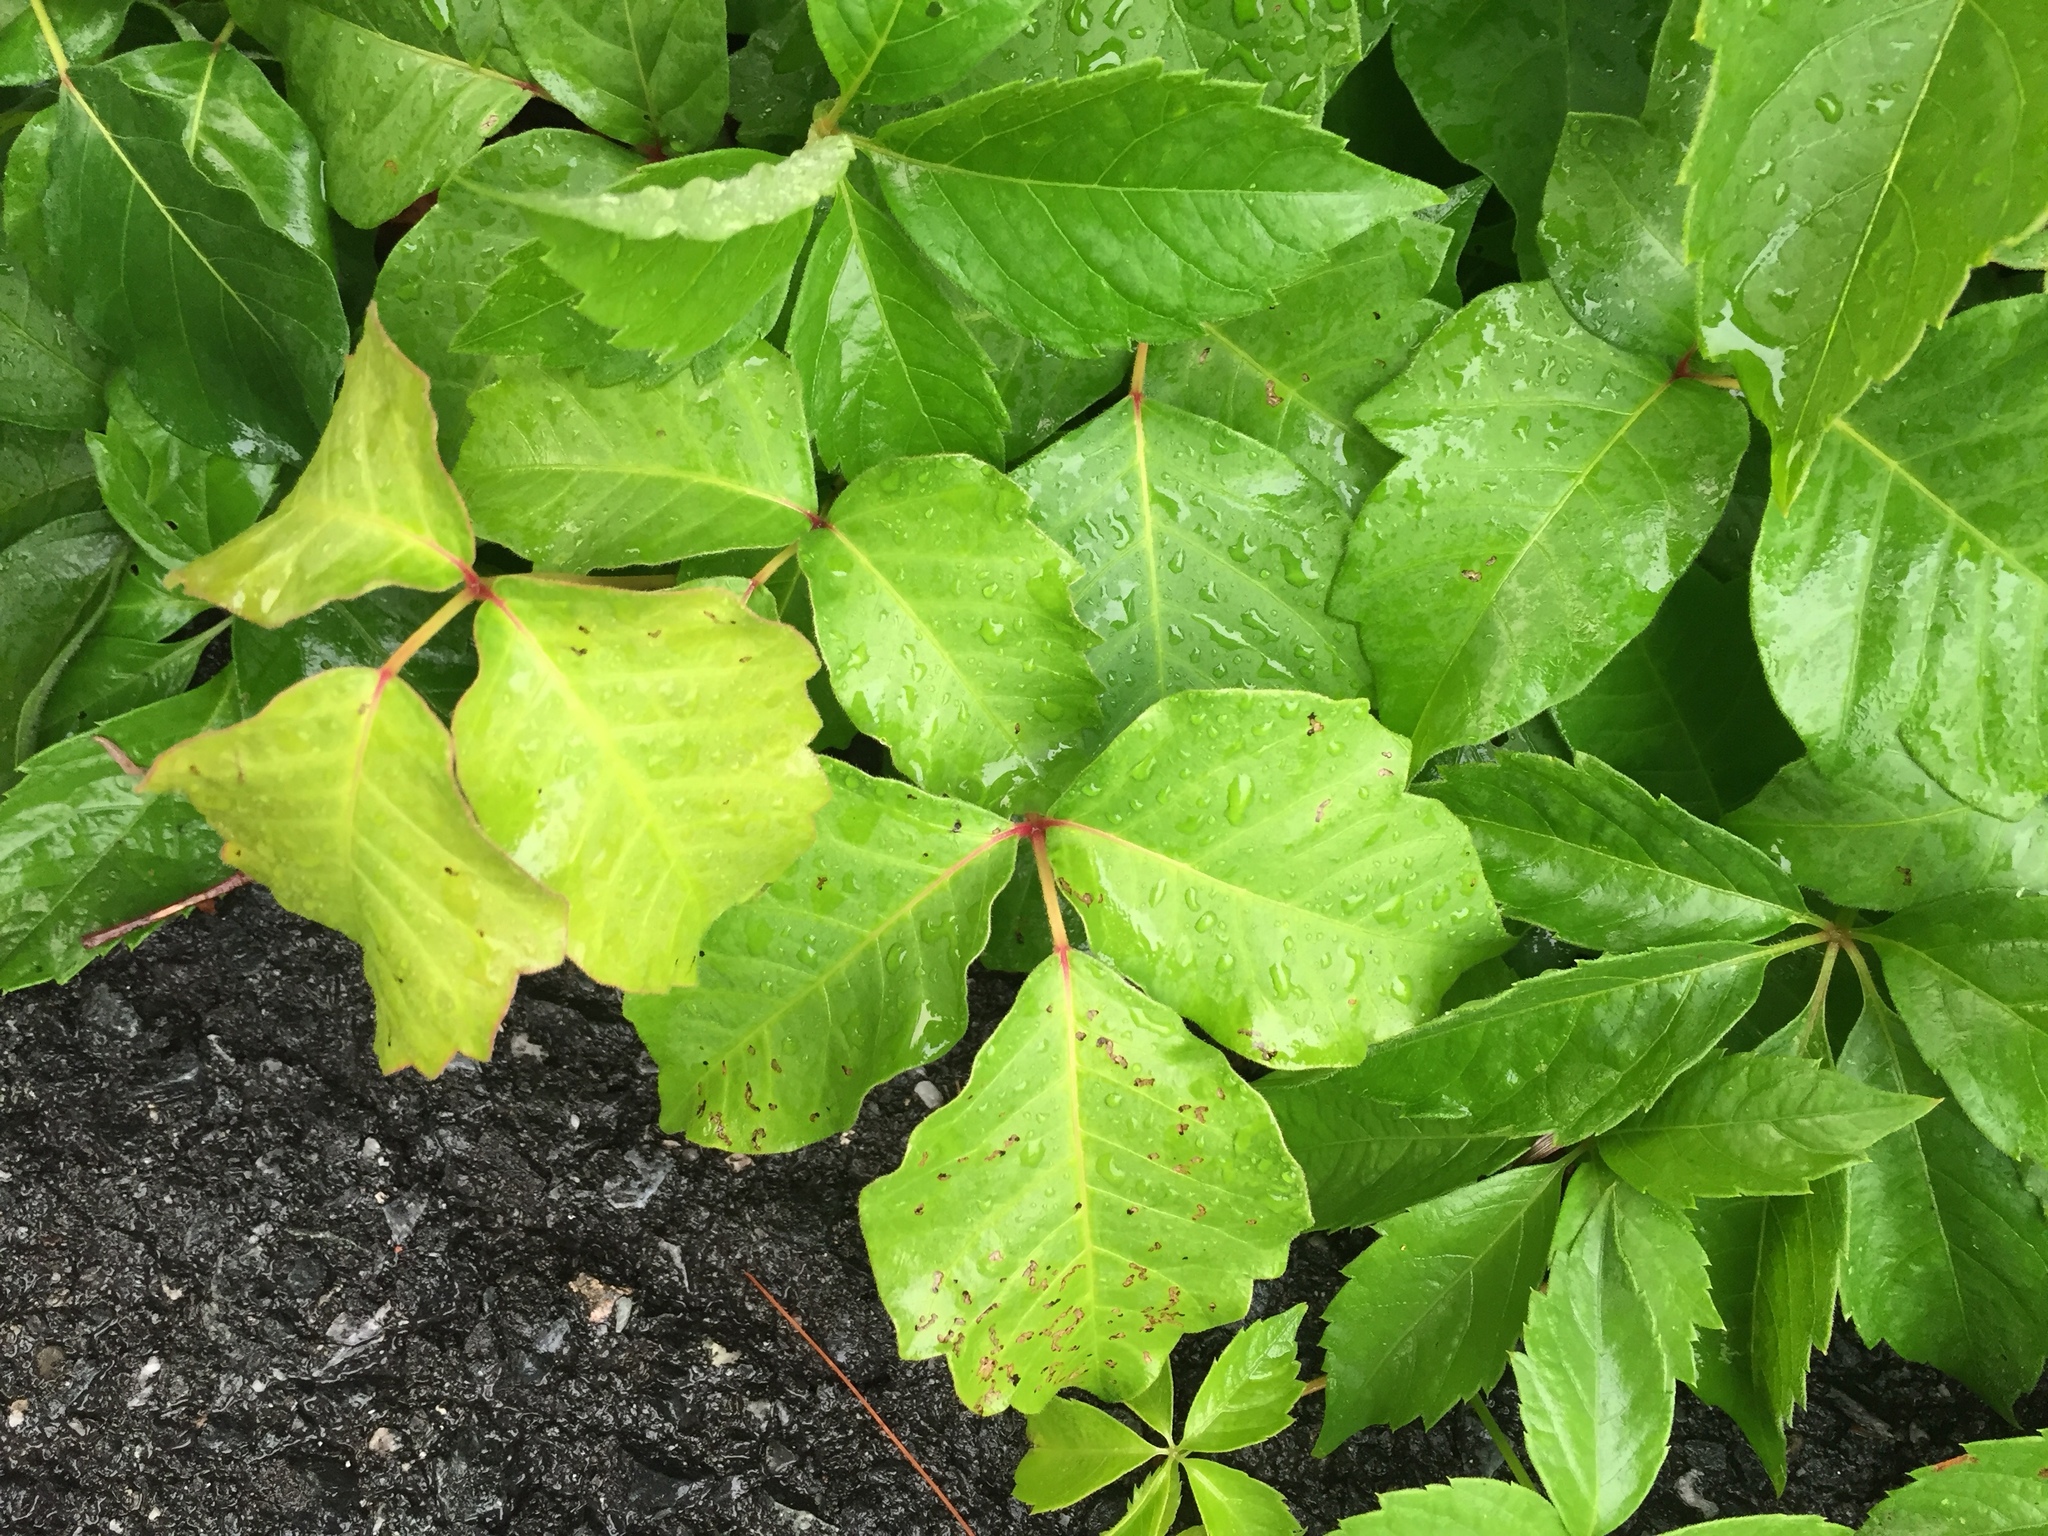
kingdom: Plantae
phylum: Tracheophyta
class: Magnoliopsida
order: Sapindales
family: Anacardiaceae
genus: Toxicodendron
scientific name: Toxicodendron radicans
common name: Poison ivy
